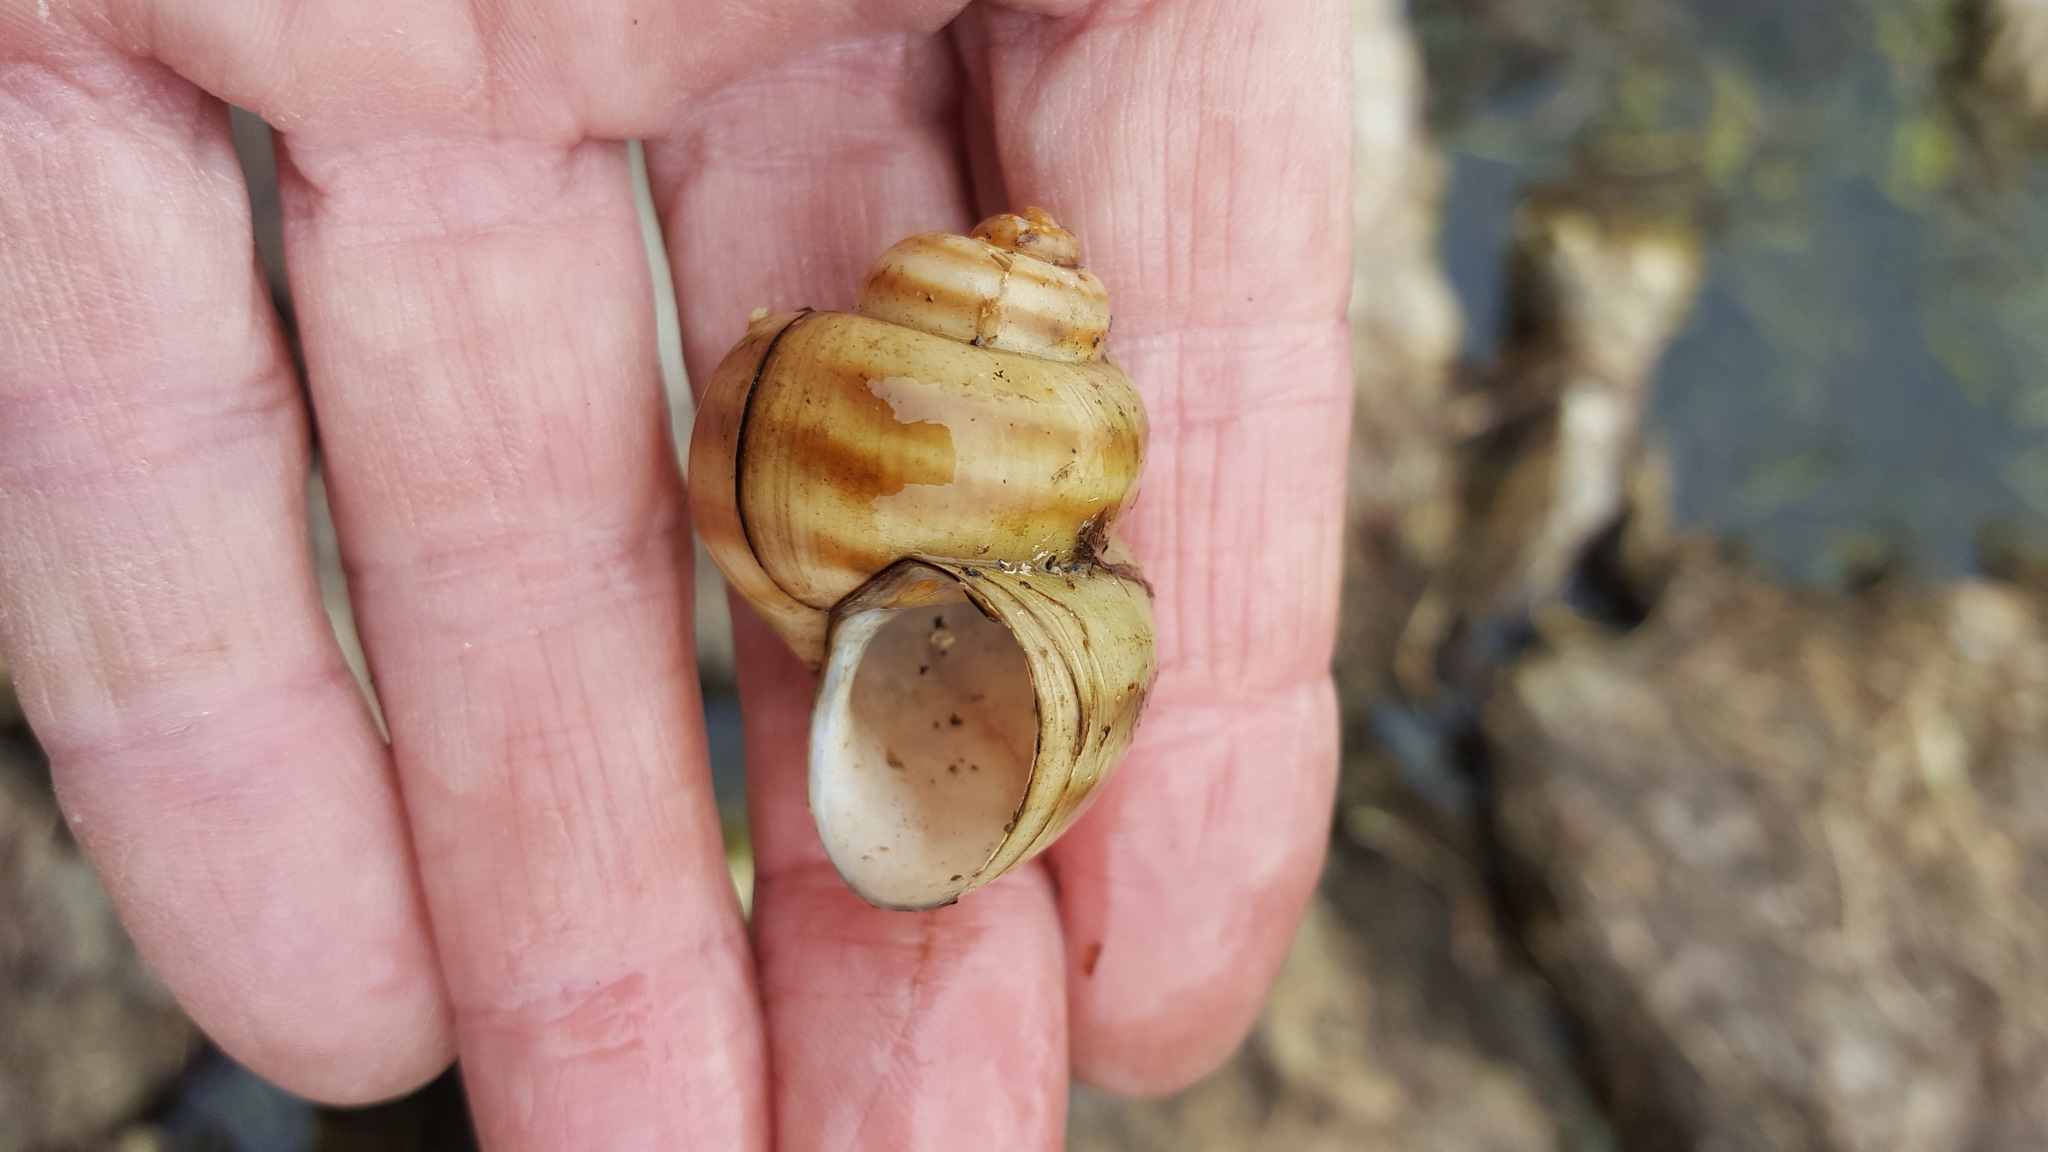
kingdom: Animalia
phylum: Mollusca
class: Gastropoda
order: Architaenioglossa
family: Viviparidae
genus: Callinina
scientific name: Callinina georgiana
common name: Banded mystery snail
